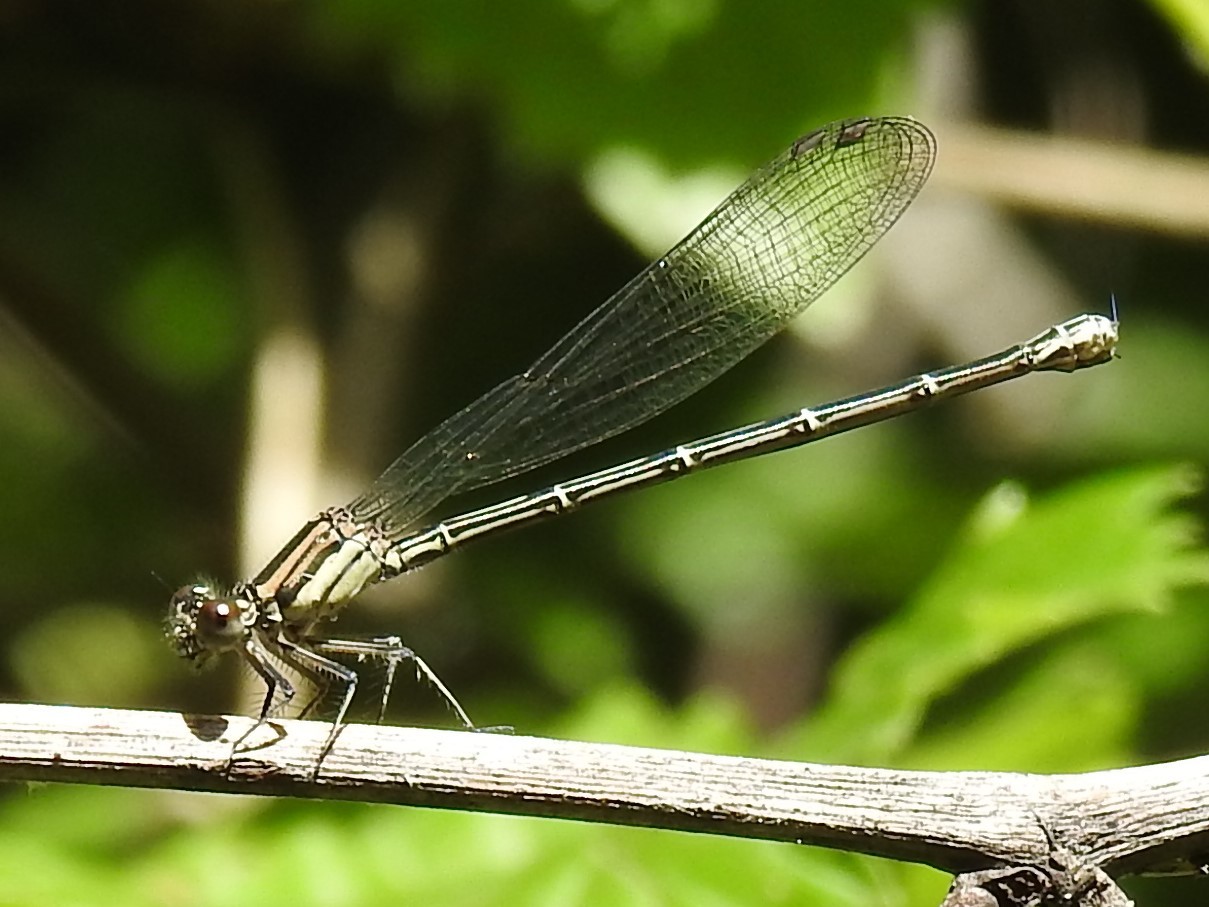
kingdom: Animalia
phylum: Arthropoda
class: Insecta
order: Odonata
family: Coenagrionidae
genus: Argia
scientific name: Argia translata
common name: Dusky dancer
